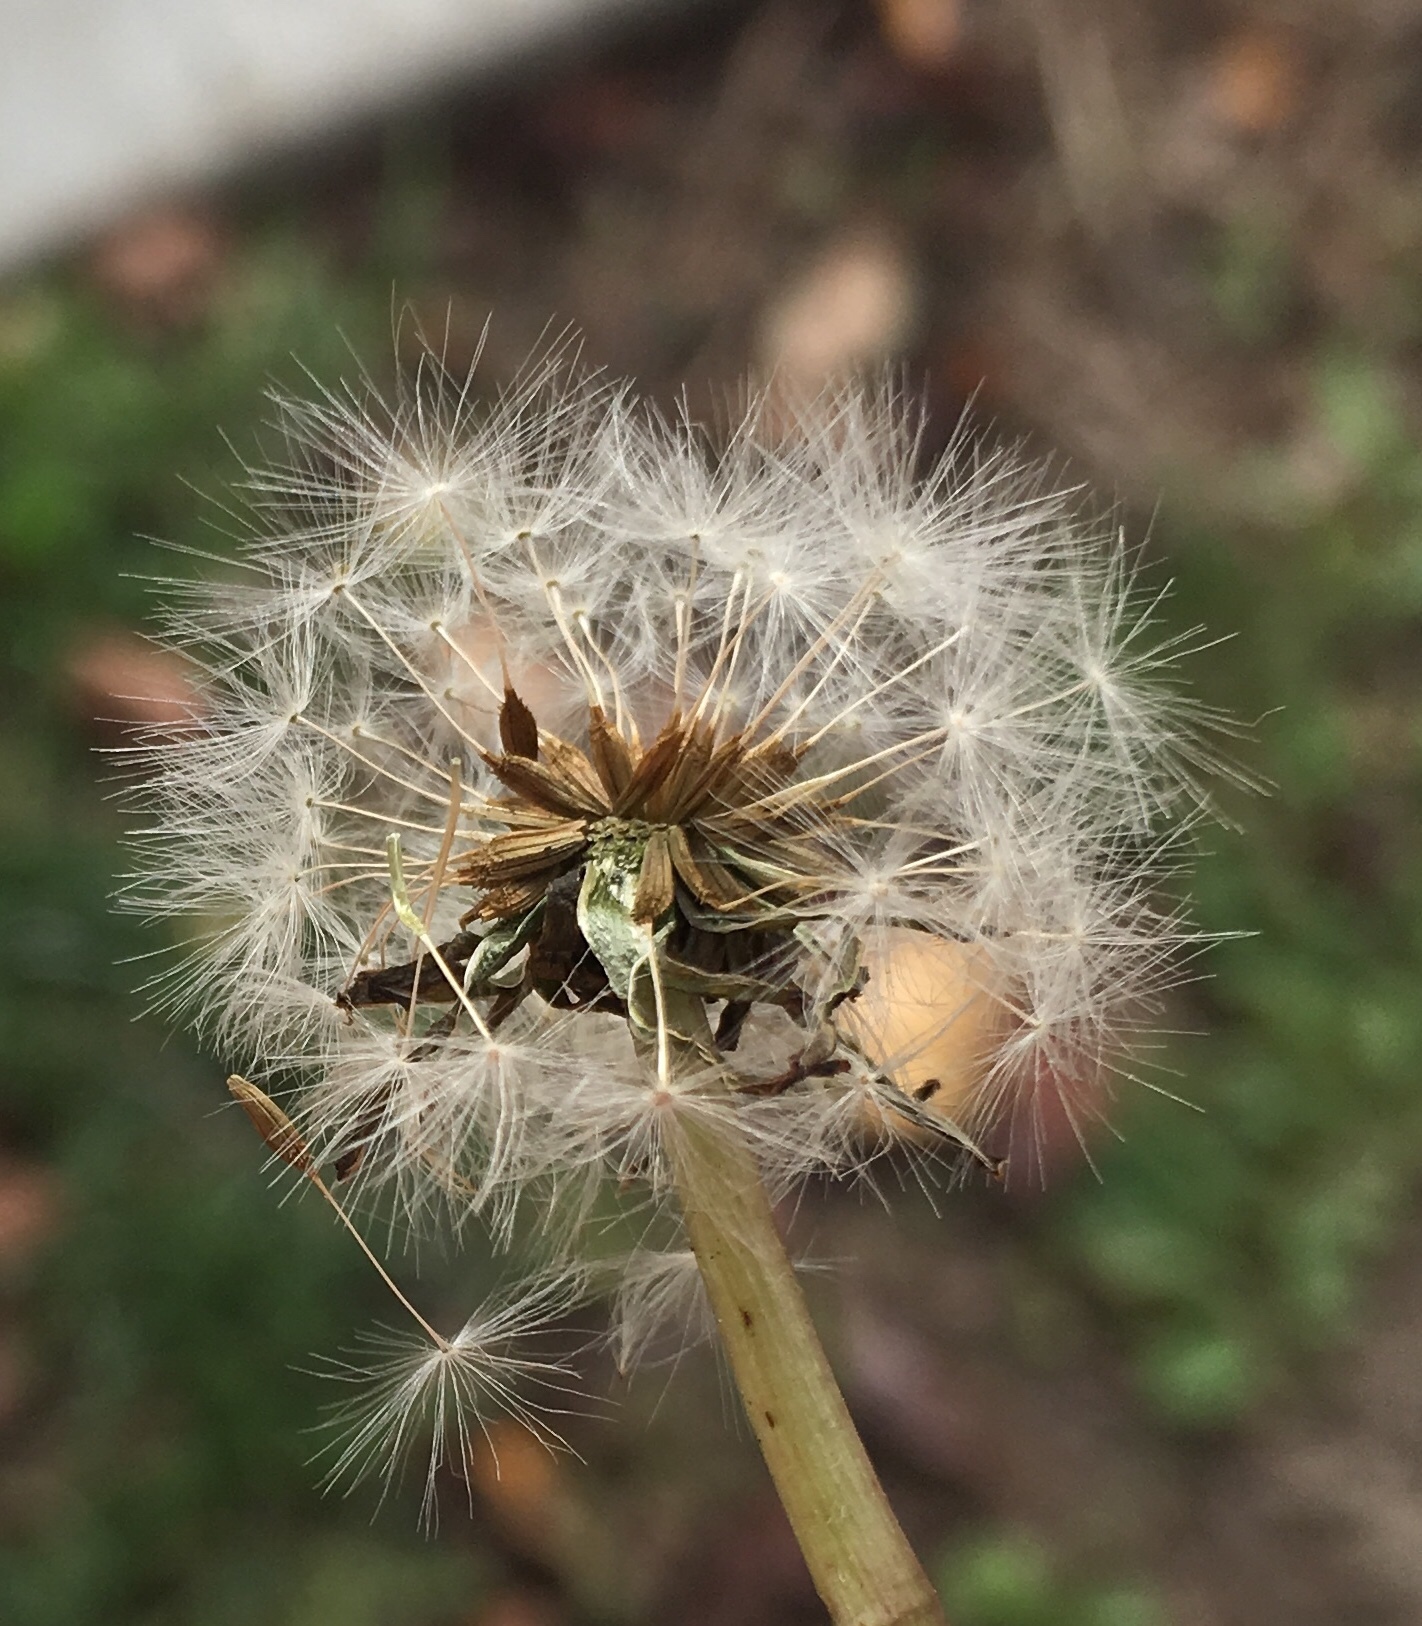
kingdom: Plantae
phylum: Tracheophyta
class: Magnoliopsida
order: Asterales
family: Asteraceae
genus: Taraxacum
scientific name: Taraxacum officinale
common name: Common dandelion
